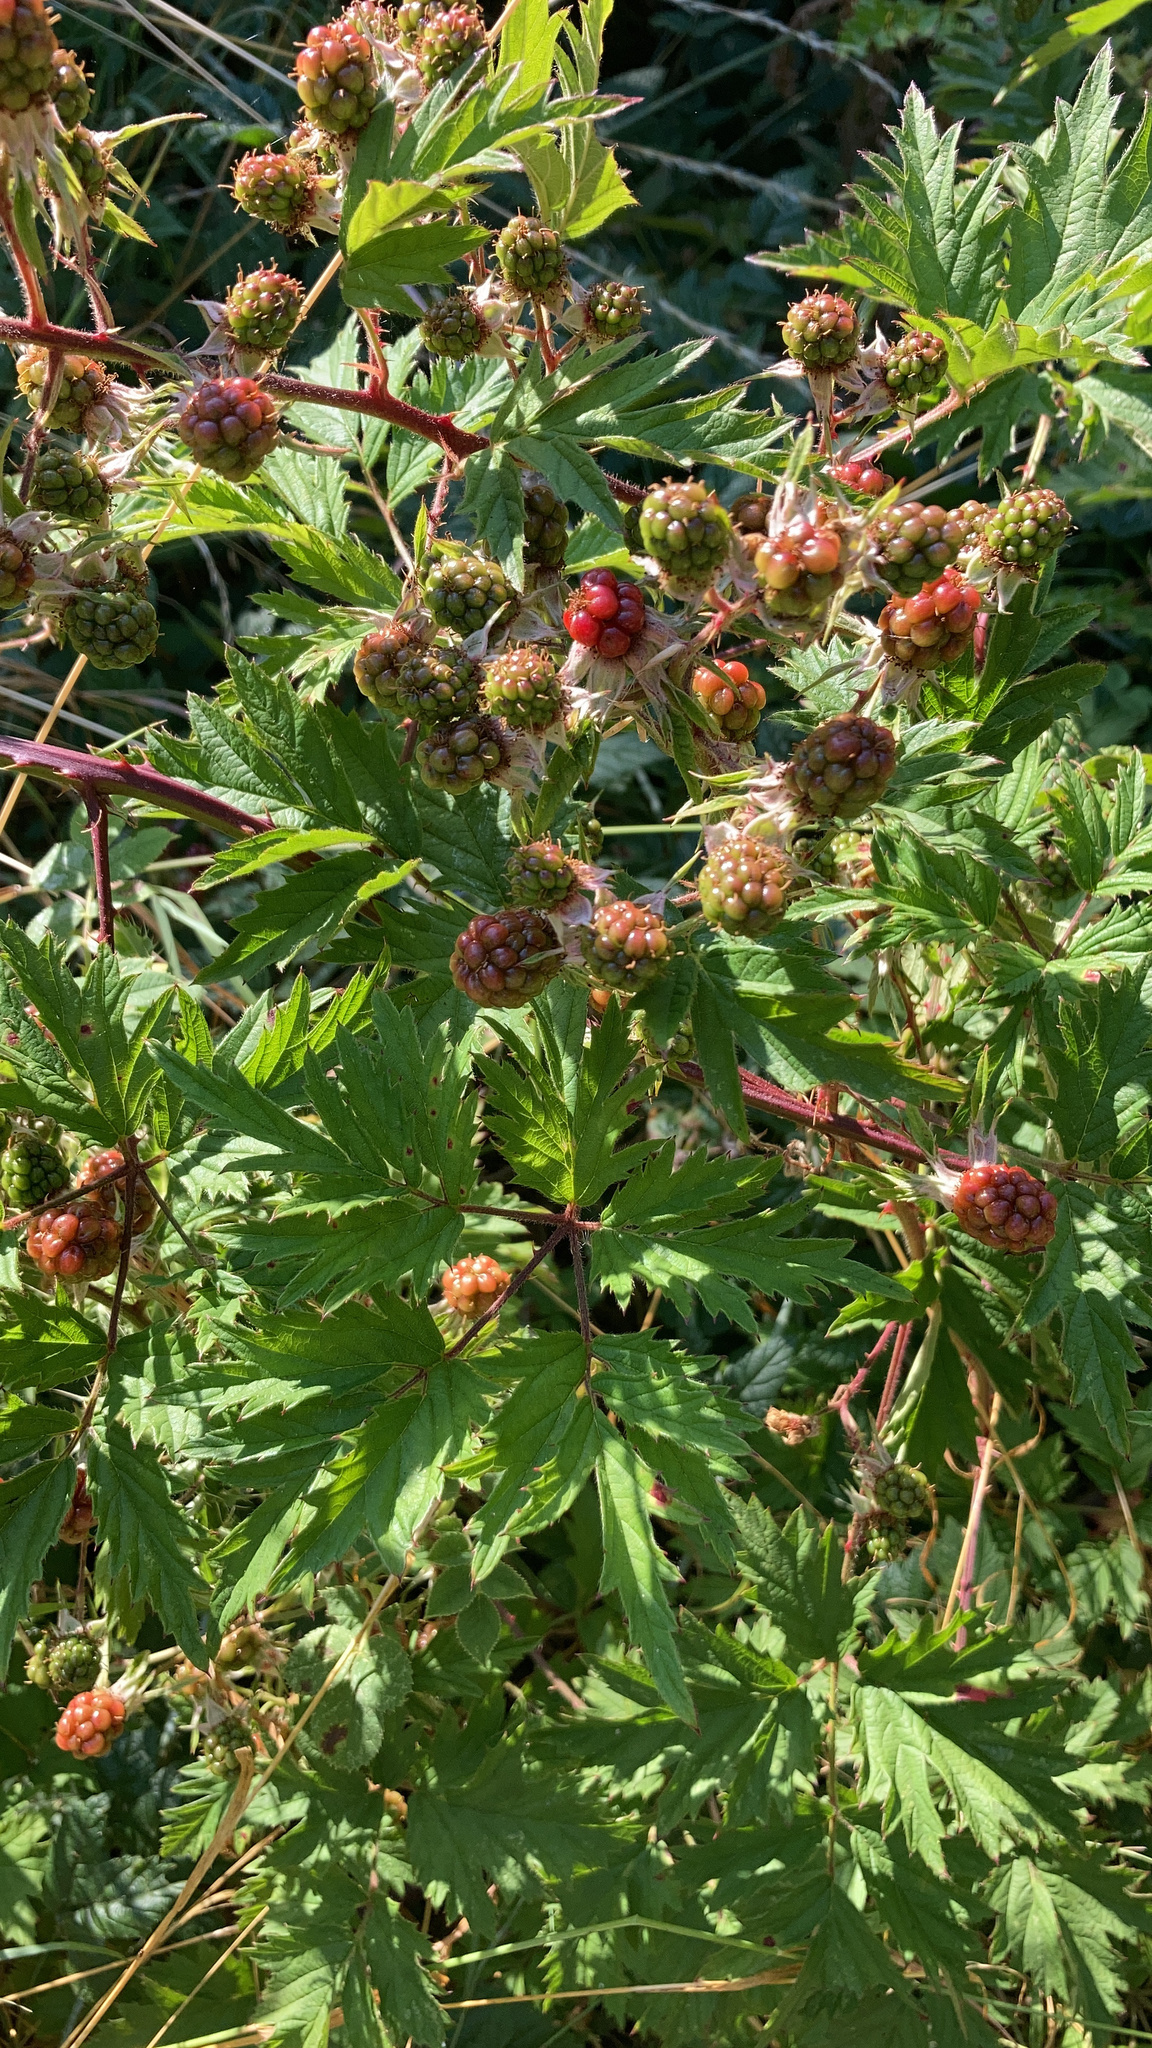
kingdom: Plantae
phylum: Tracheophyta
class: Magnoliopsida
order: Rosales
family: Rosaceae
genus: Rubus
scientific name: Rubus laciniatus
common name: Evergreen blackberry
